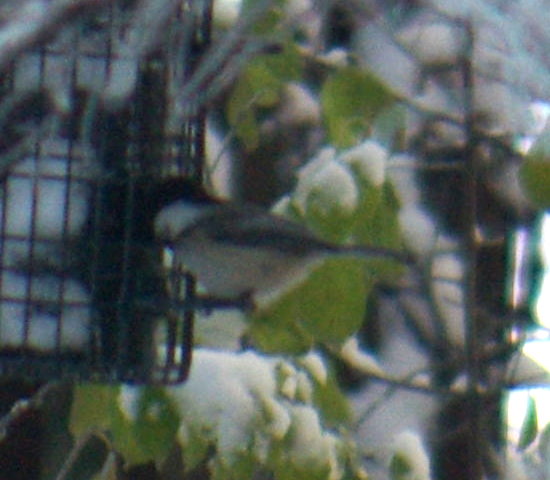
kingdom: Animalia
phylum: Chordata
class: Aves
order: Passeriformes
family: Paridae
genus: Poecile
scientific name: Poecile atricapillus
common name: Black-capped chickadee
